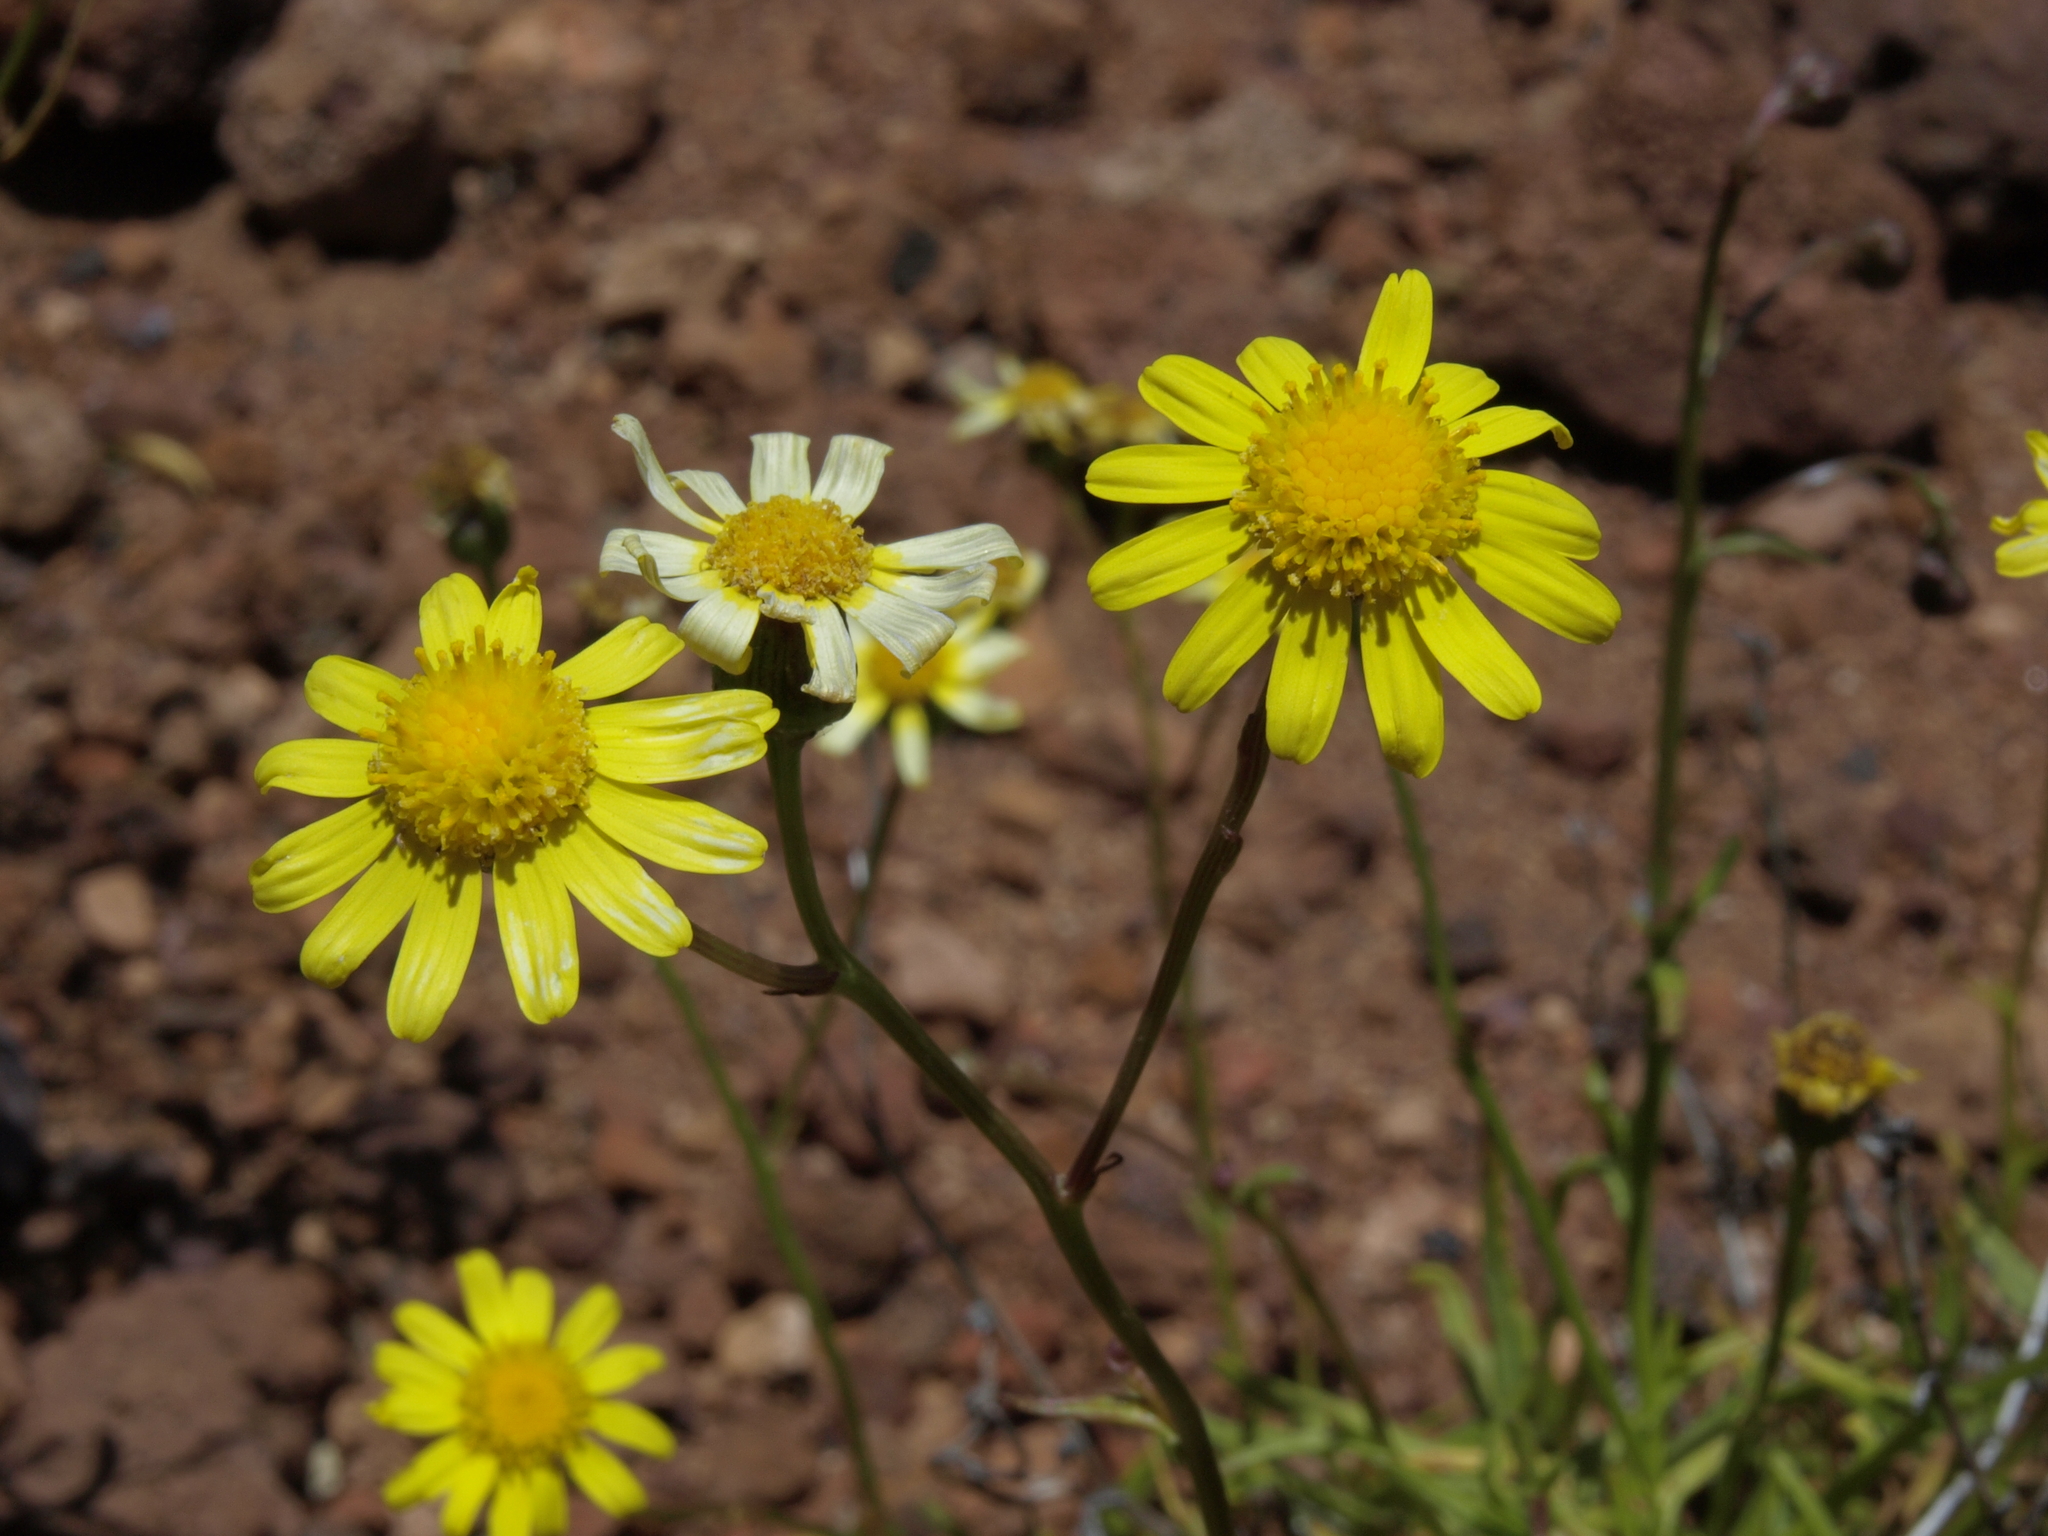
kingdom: Plantae
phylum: Tracheophyta
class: Magnoliopsida
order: Asterales
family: Asteraceae
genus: Senecio
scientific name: Senecio madagascariensis
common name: Madagascar ragwort
